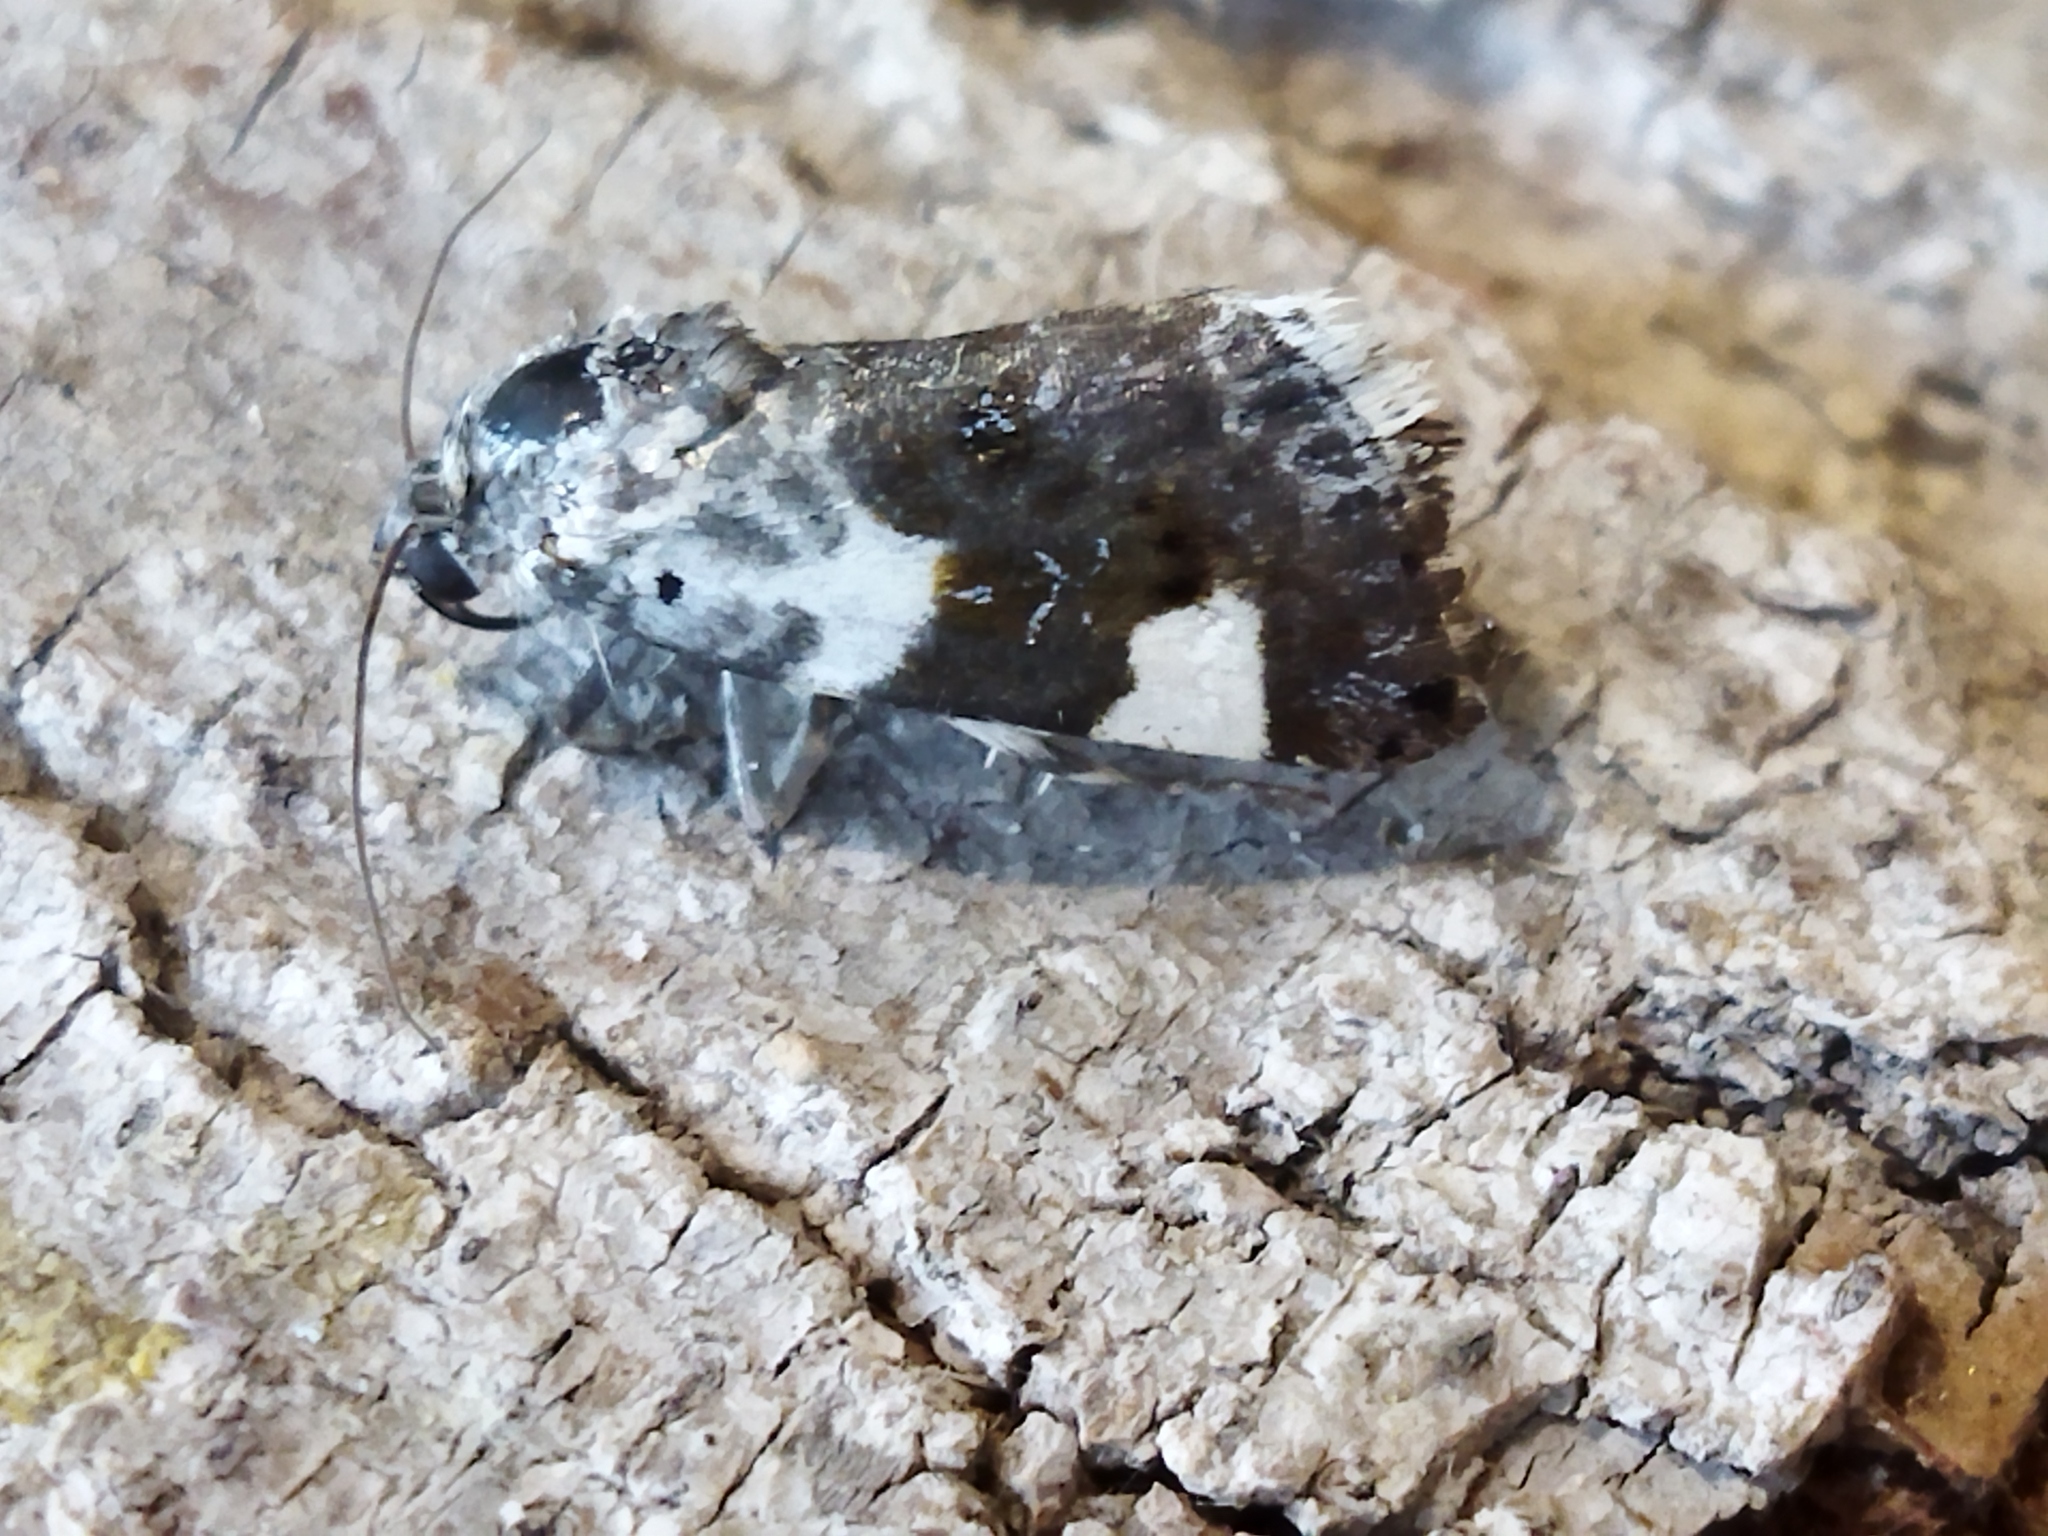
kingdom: Animalia
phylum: Arthropoda
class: Insecta
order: Lepidoptera
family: Noctuidae
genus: Acontia
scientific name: Acontia lucida
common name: Pale shoulder
